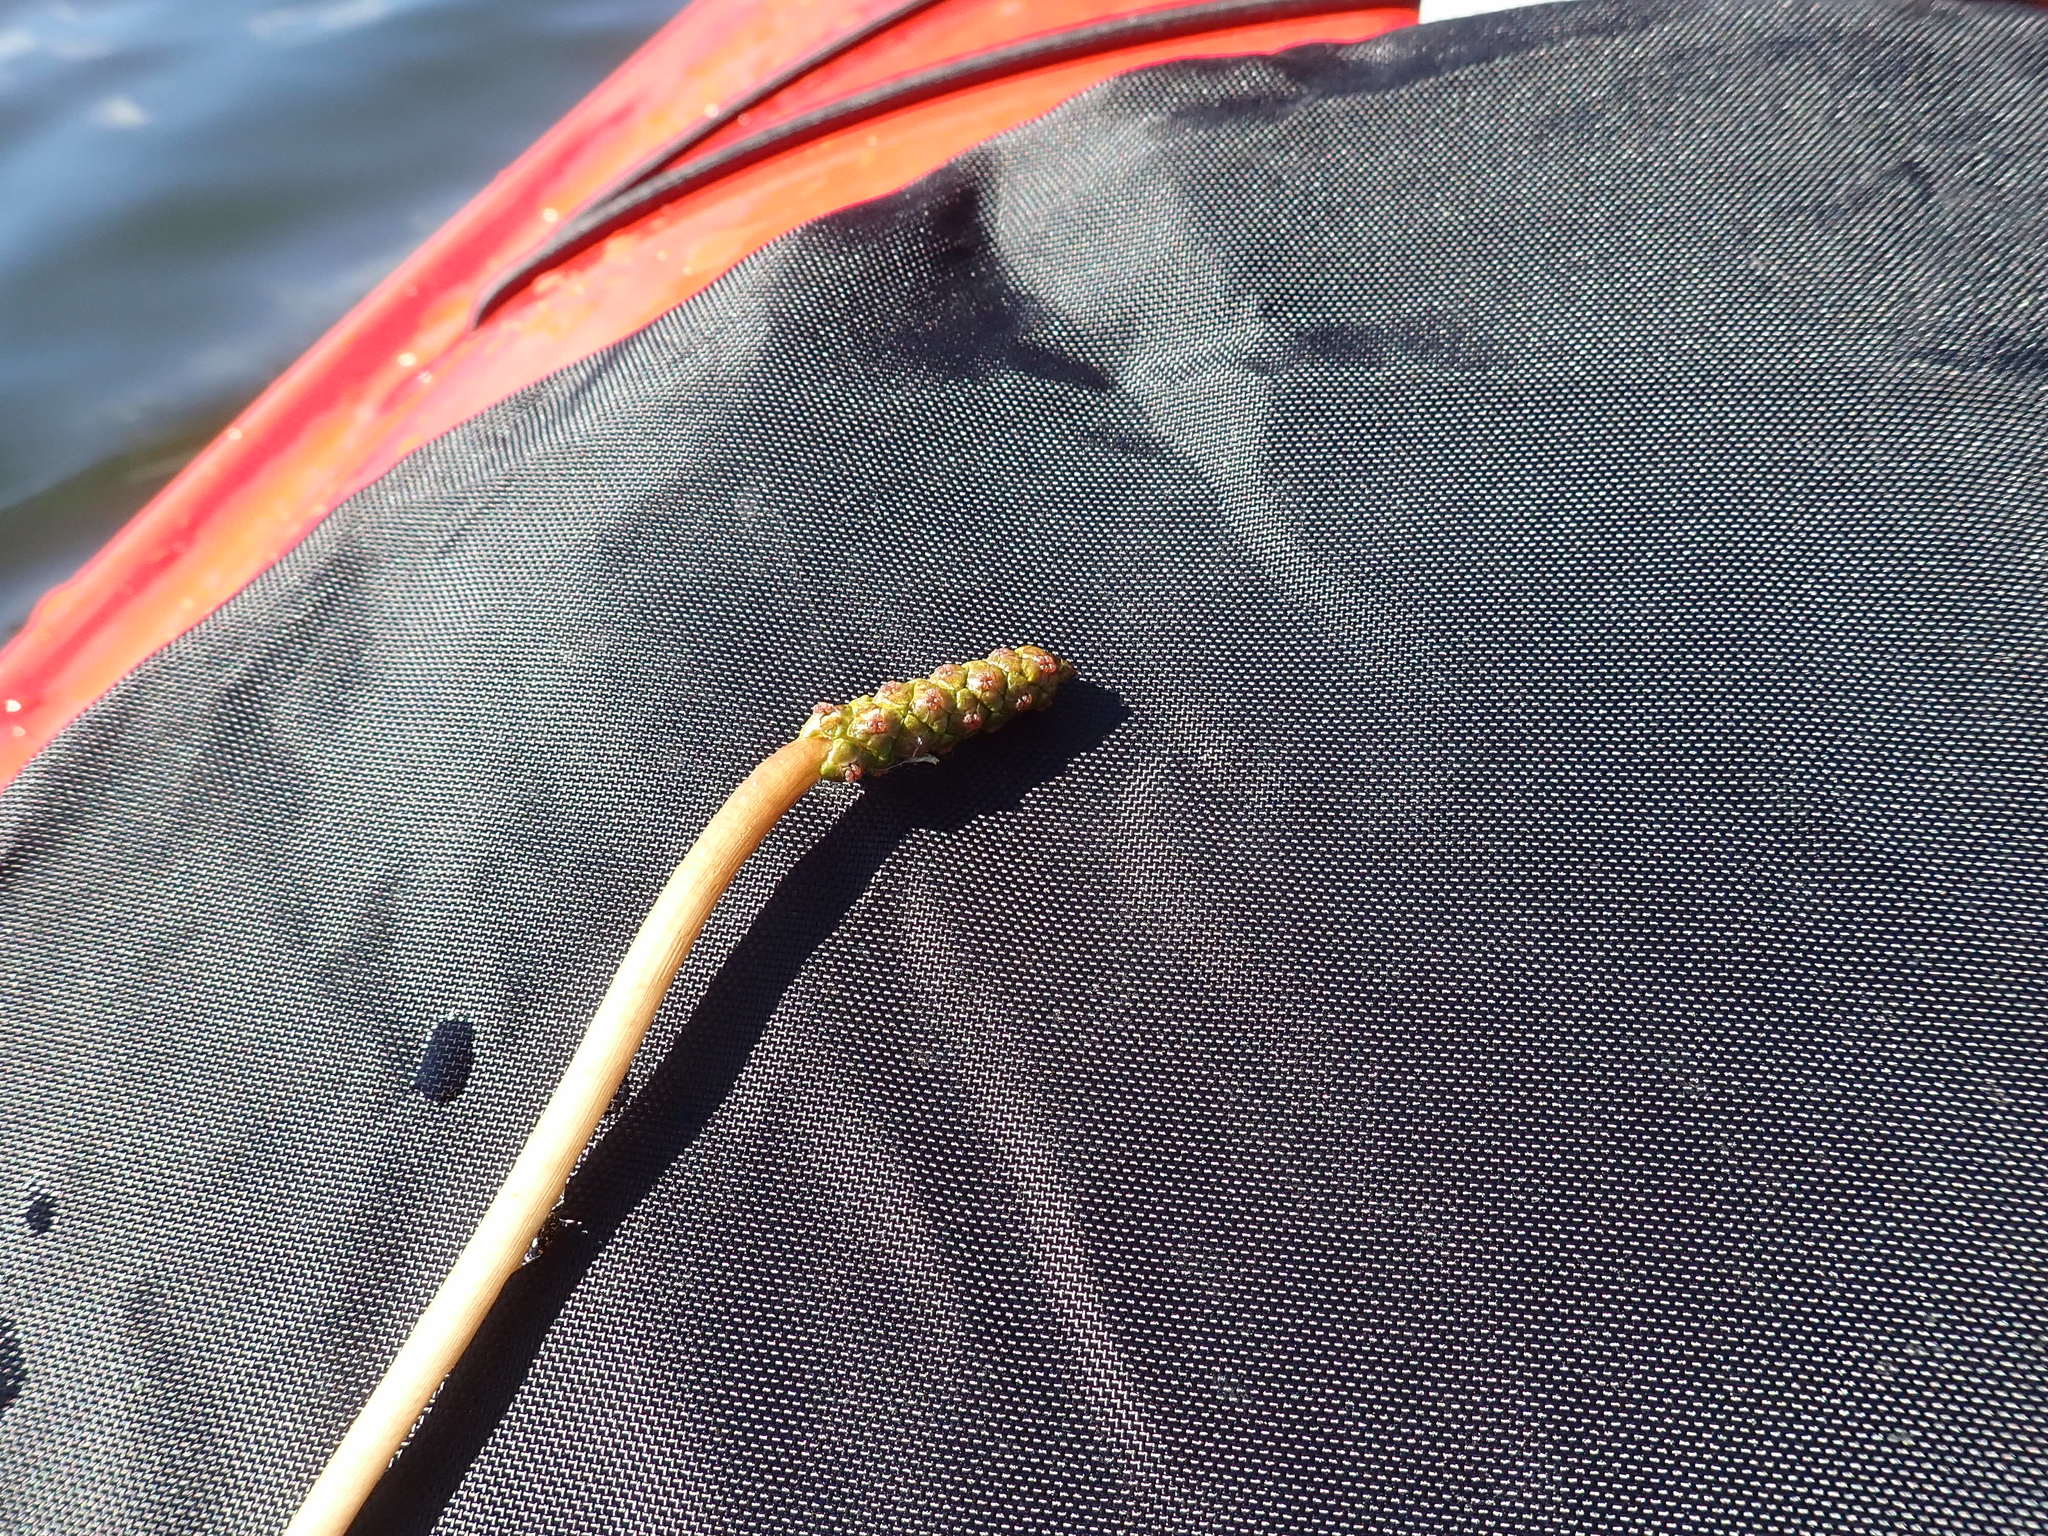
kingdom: Plantae
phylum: Tracheophyta
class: Liliopsida
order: Alismatales
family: Potamogetonaceae
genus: Potamogeton
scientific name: Potamogeton praelongus
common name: Long-stalked pondweed
